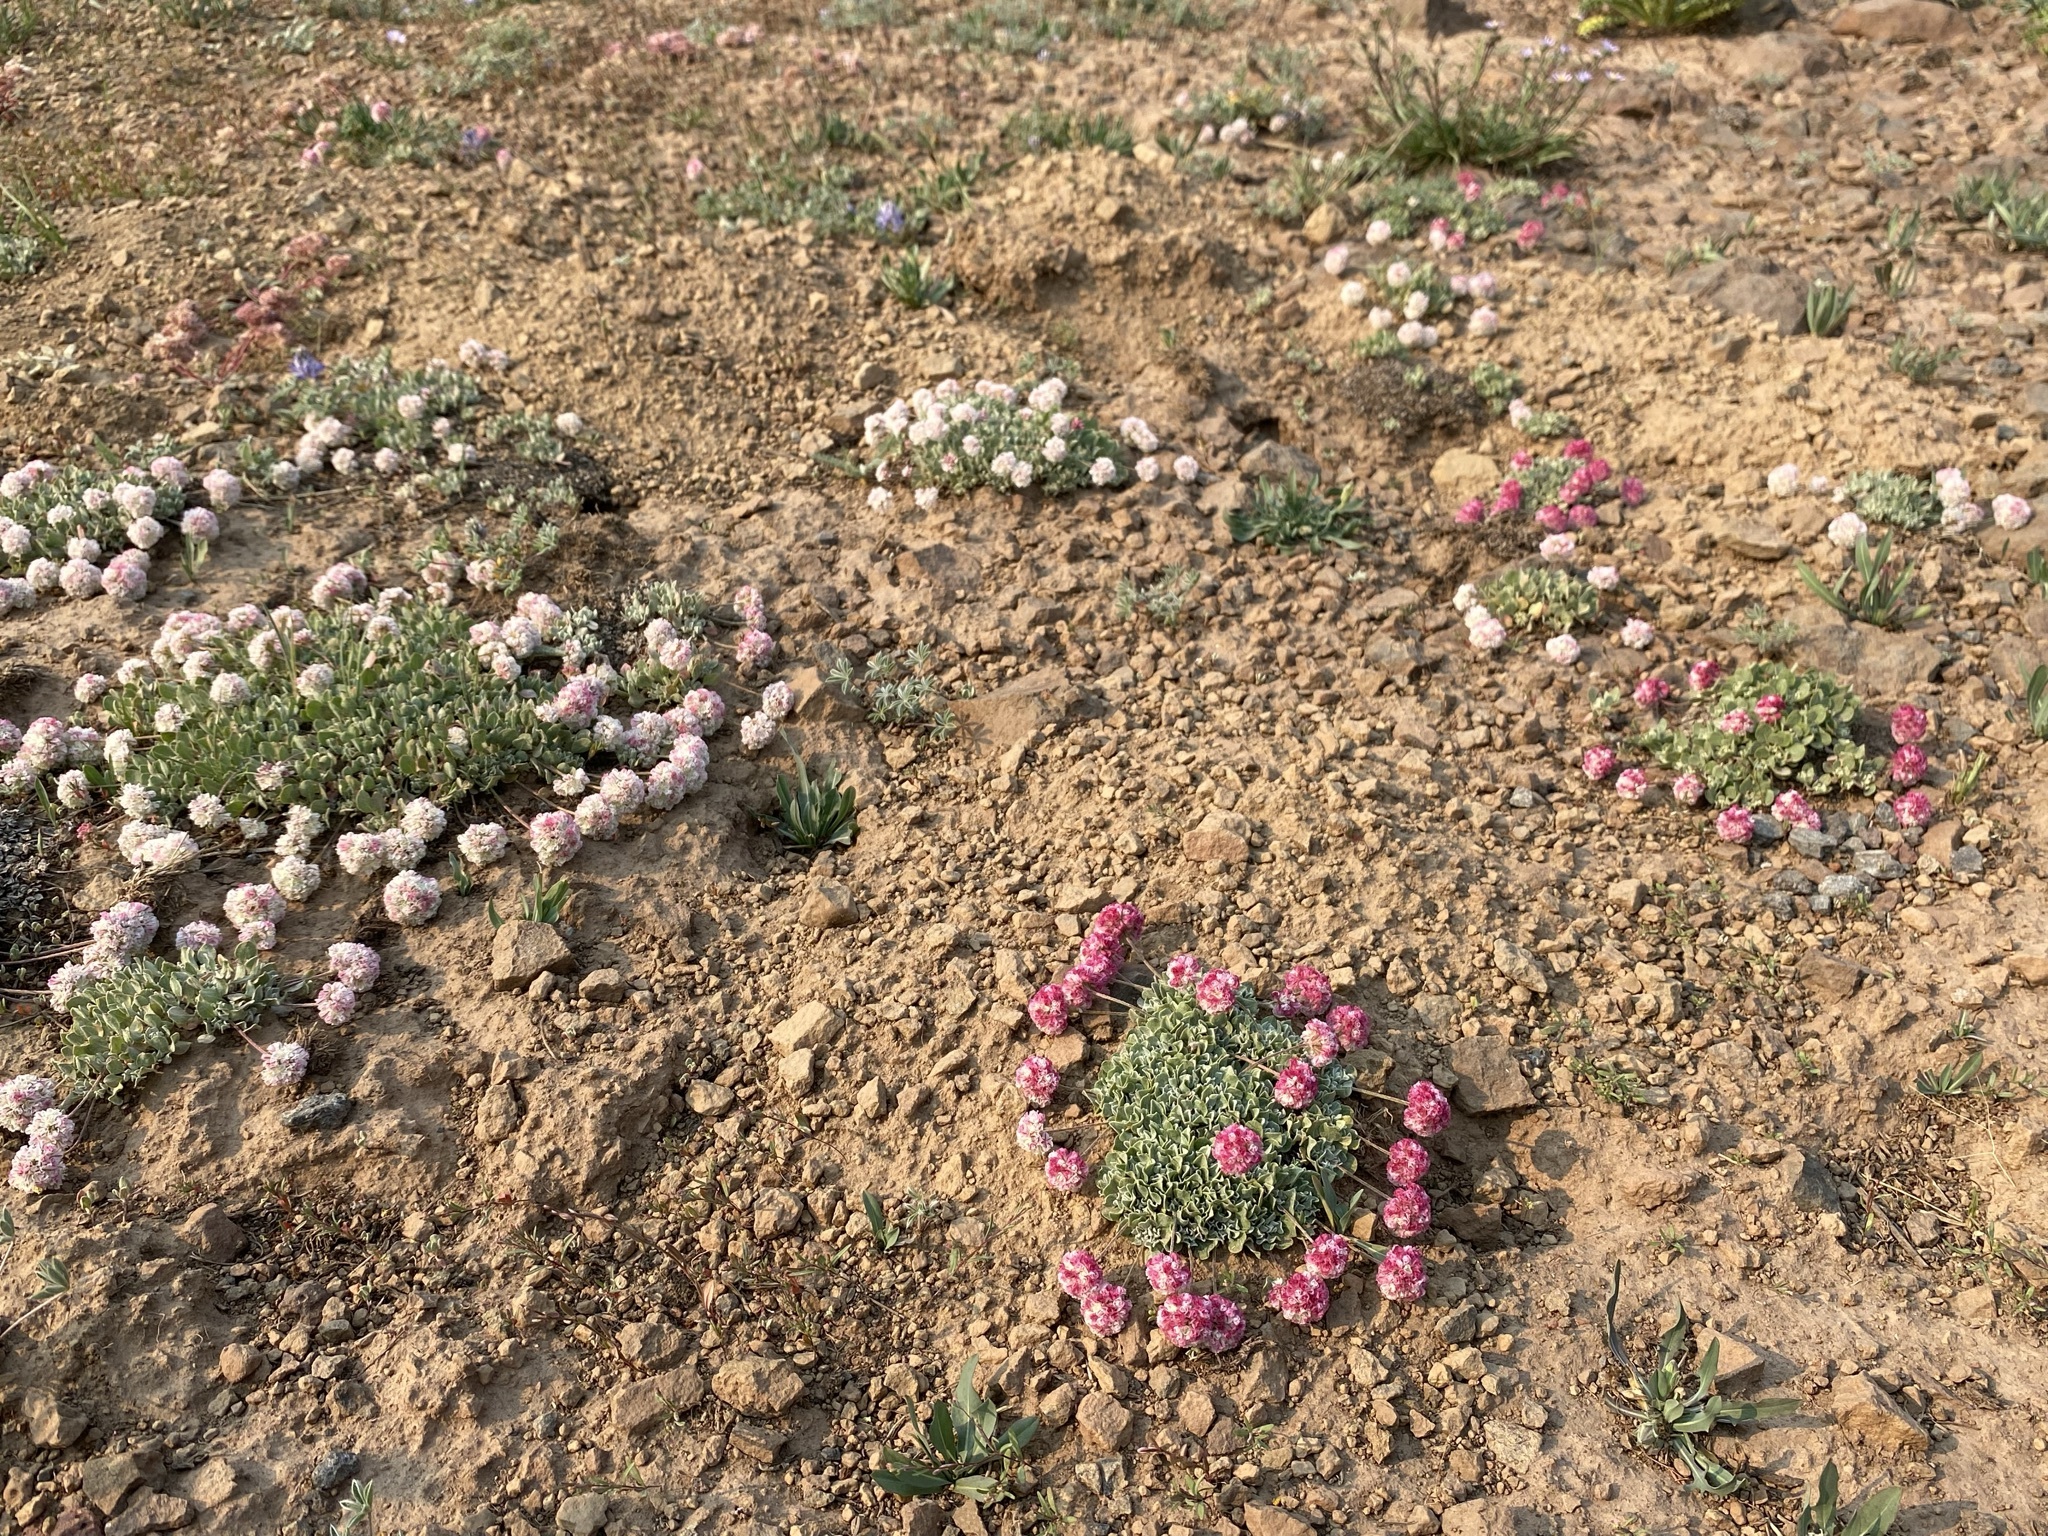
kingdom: Plantae
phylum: Tracheophyta
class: Magnoliopsida
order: Caryophyllales
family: Polygonaceae
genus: Eriogonum
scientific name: Eriogonum ovalifolium
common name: Cushion buckwheat
